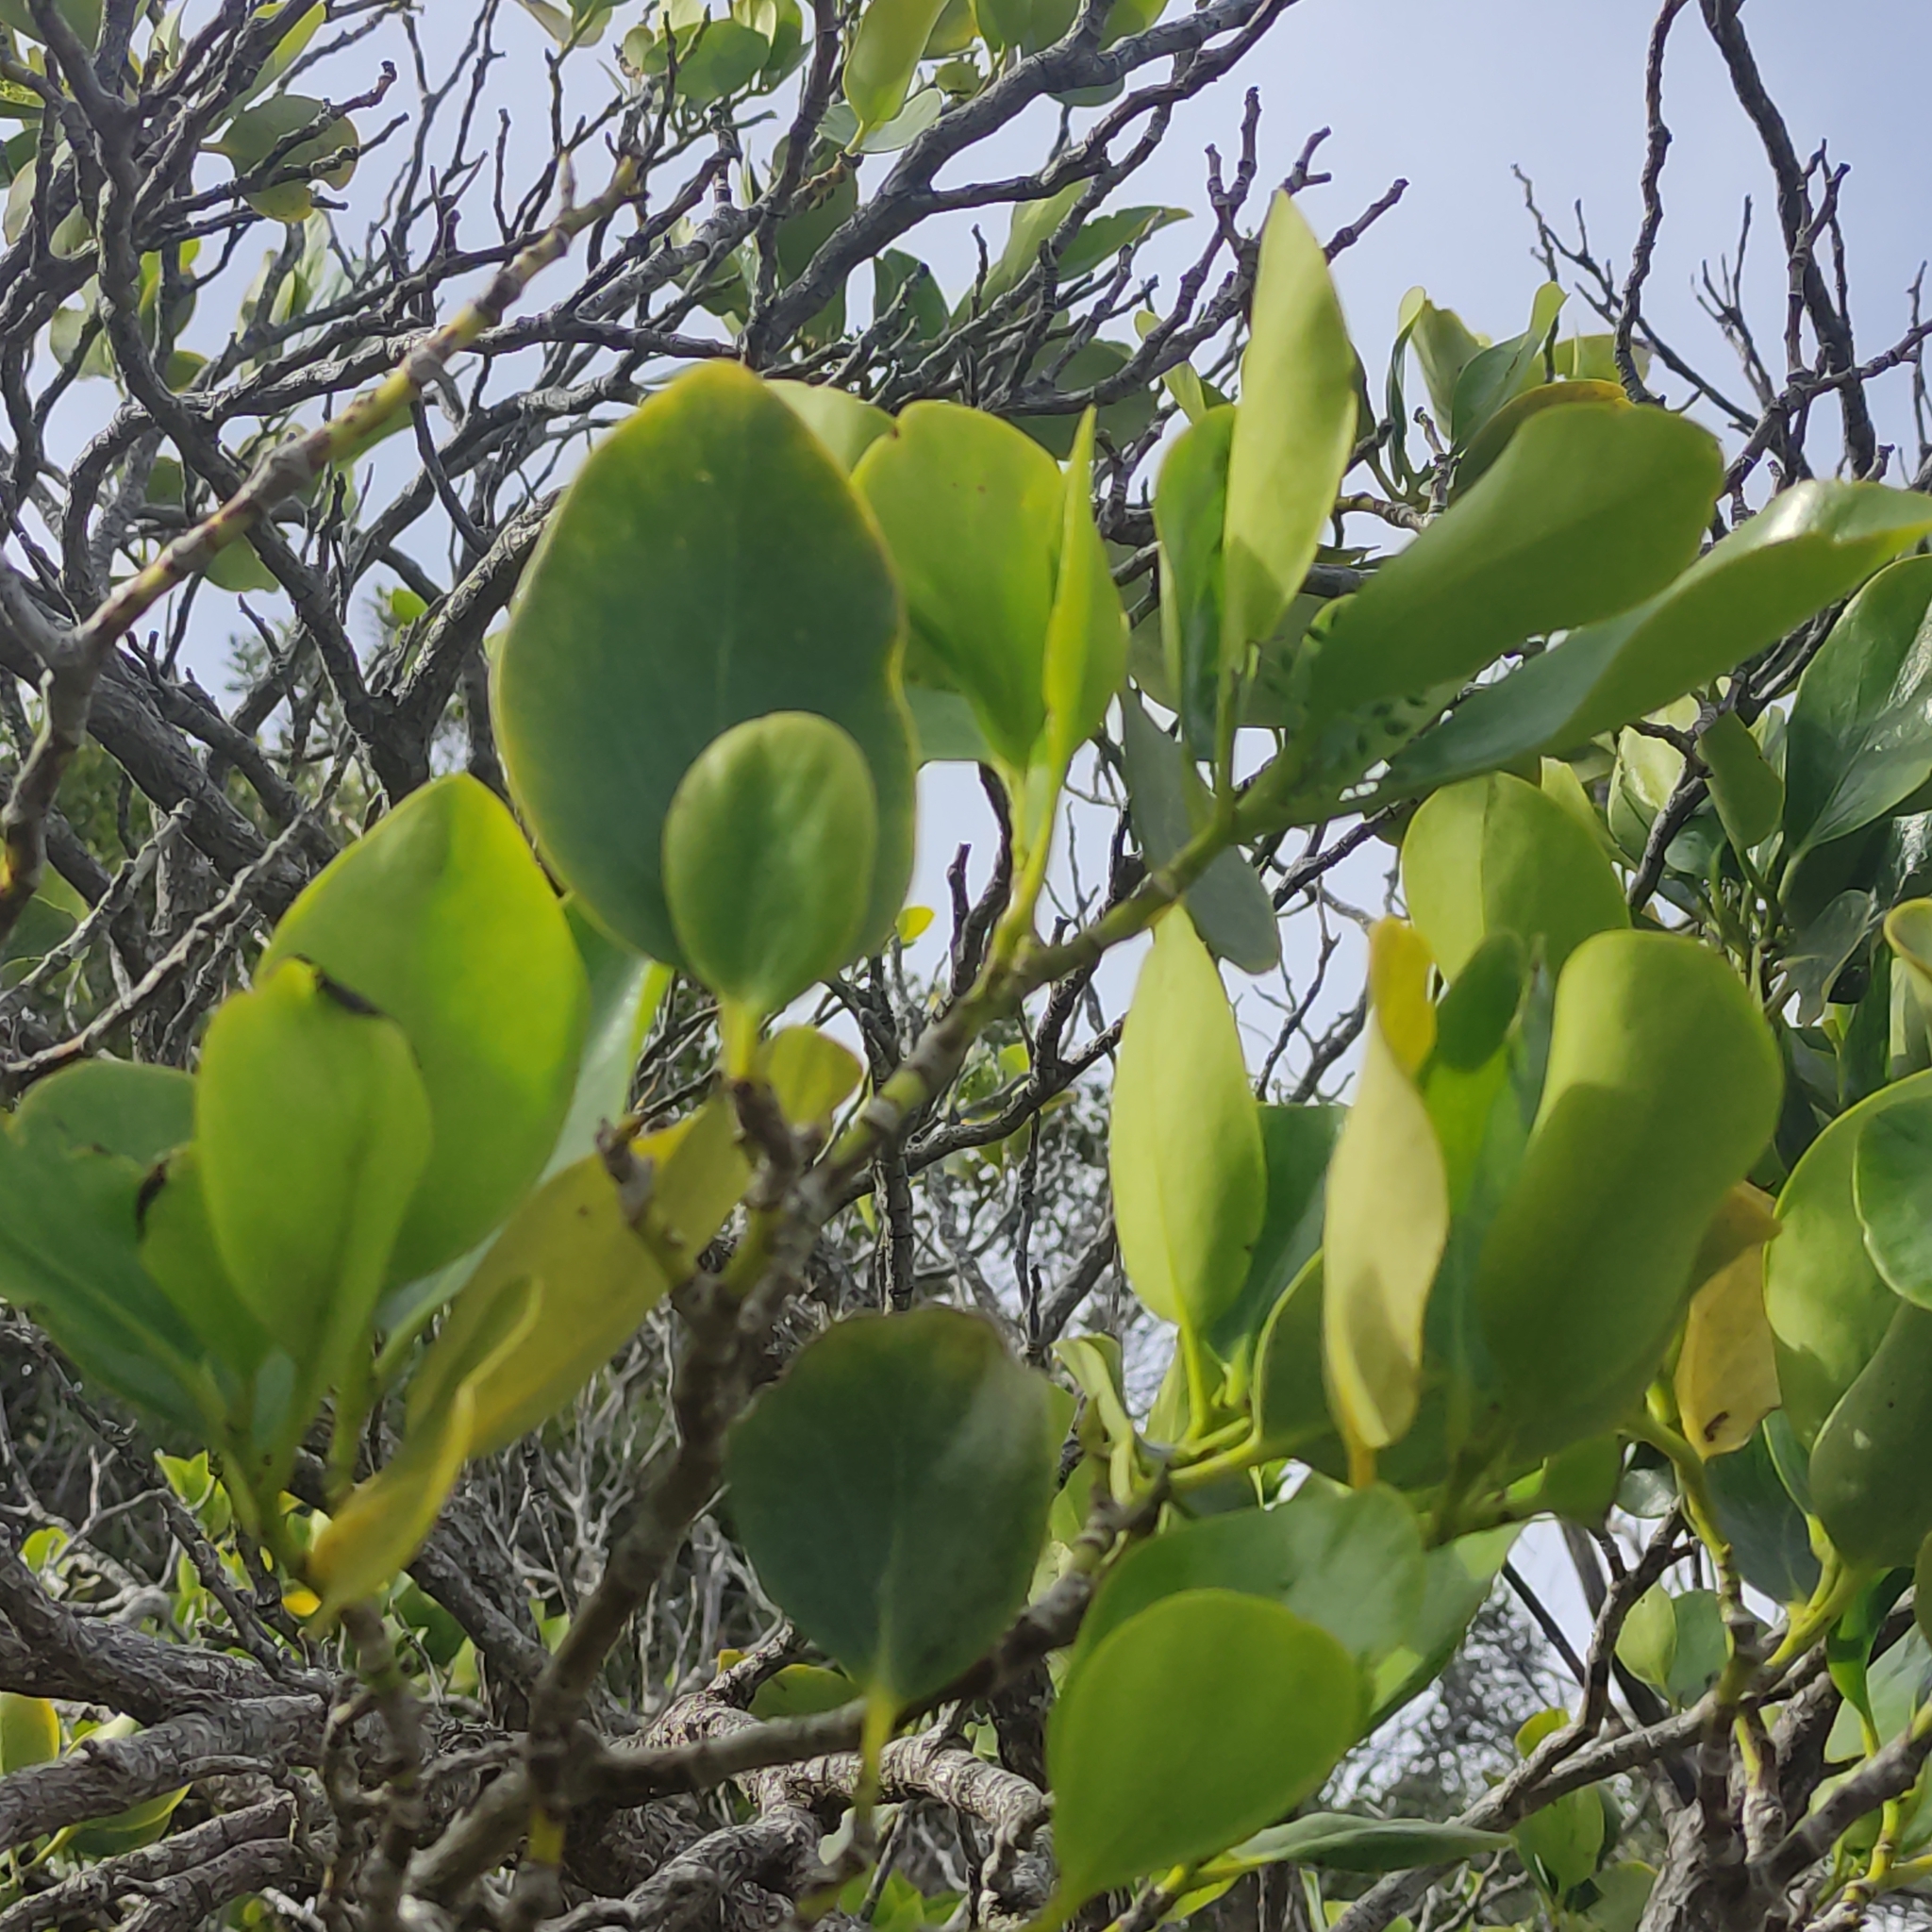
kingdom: Plantae
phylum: Tracheophyta
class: Magnoliopsida
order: Apiales
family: Griseliniaceae
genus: Griselinia
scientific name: Griselinia littoralis
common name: New zealand broadleaf
